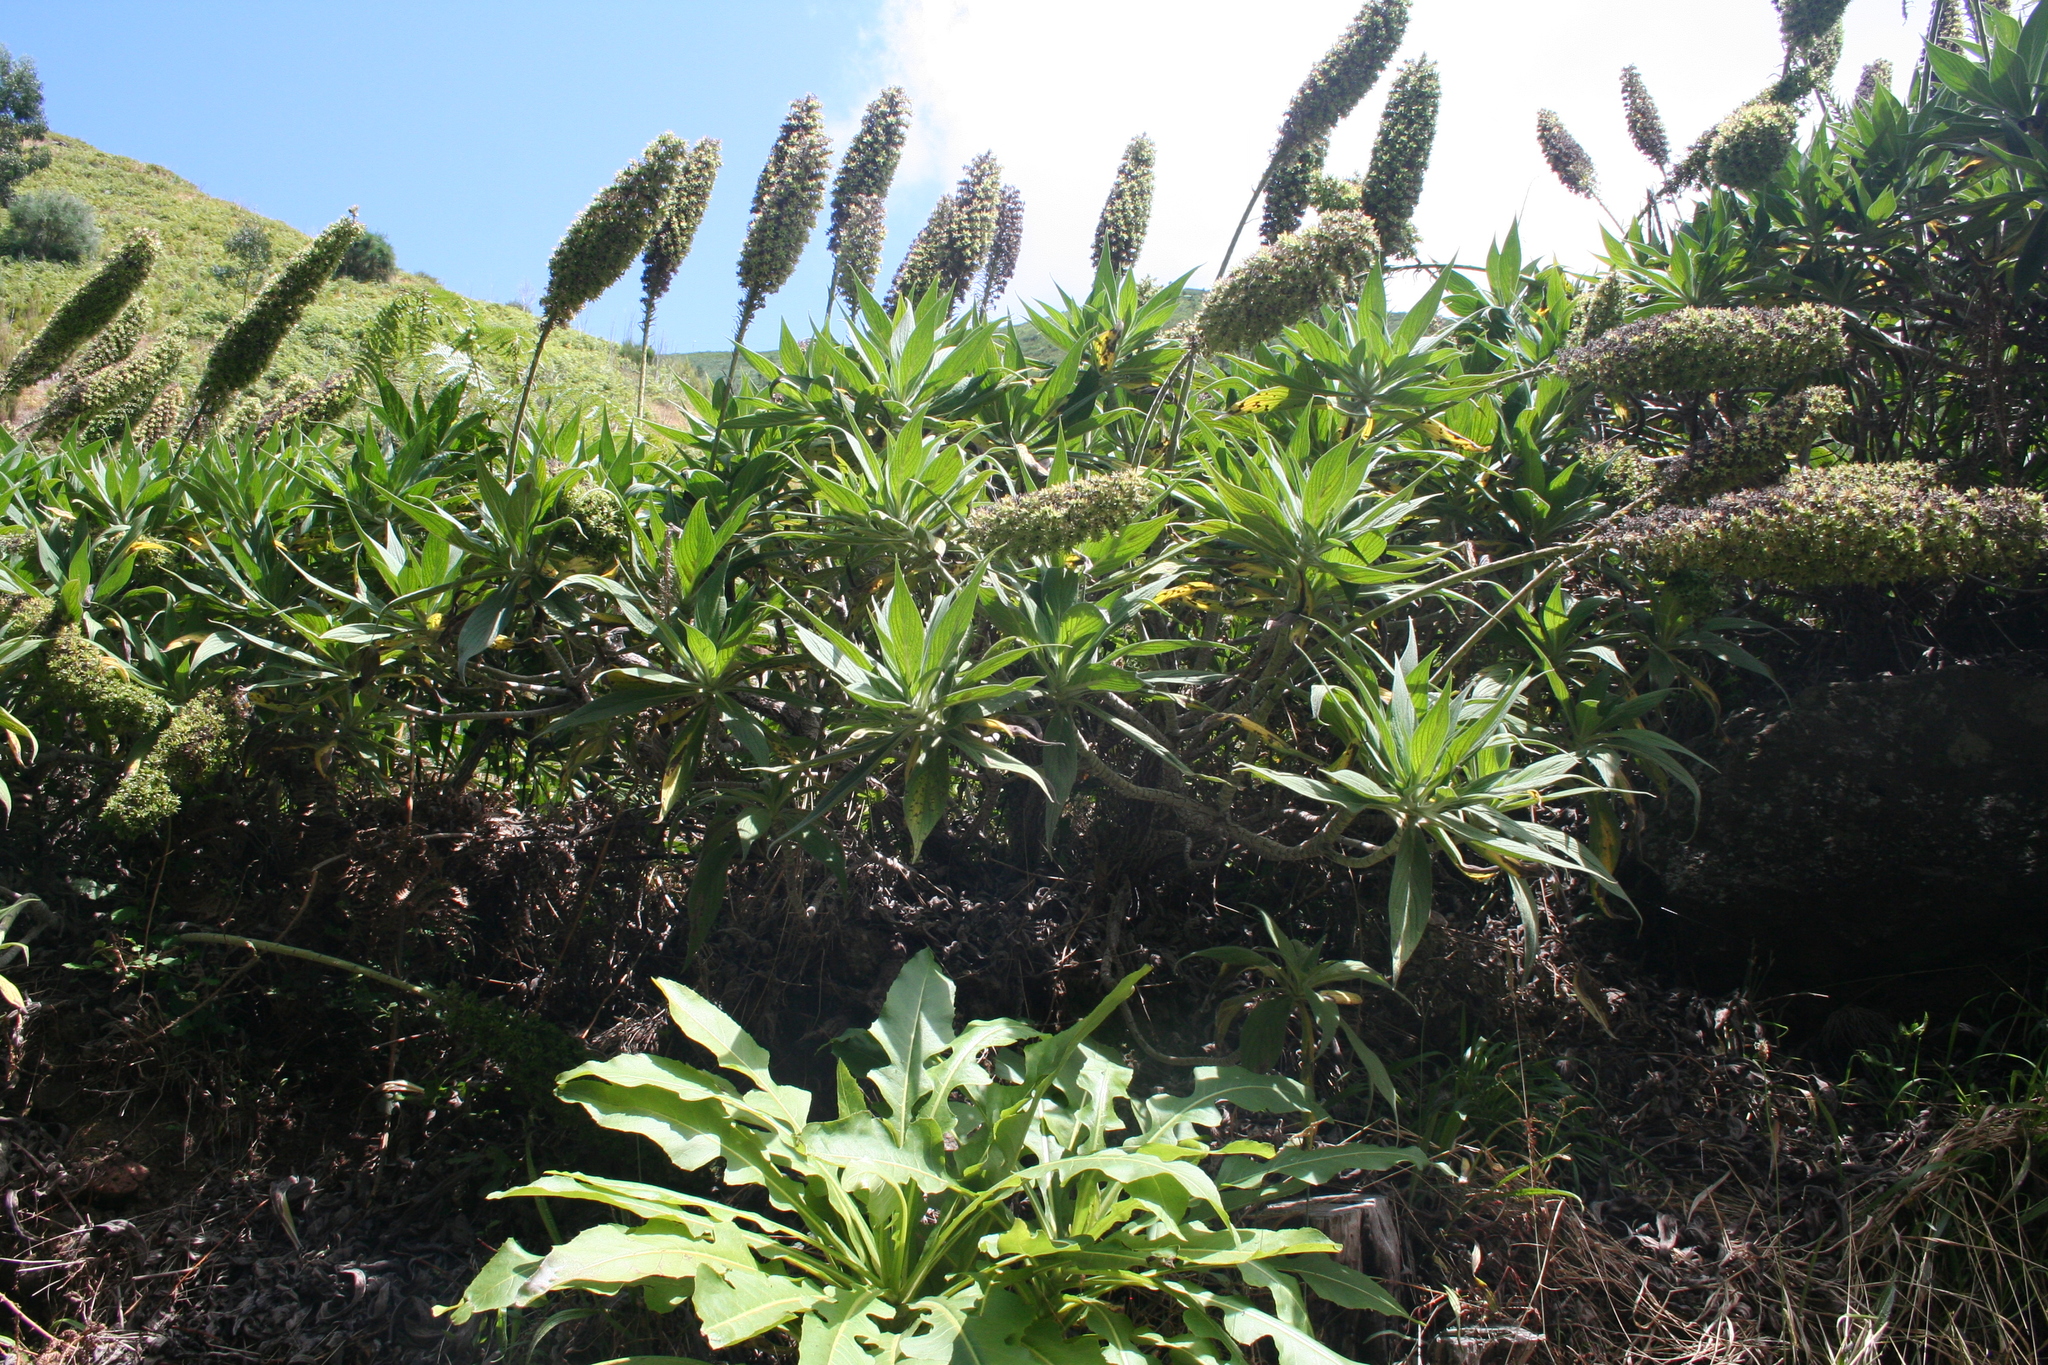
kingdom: Plantae
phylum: Tracheophyta
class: Magnoliopsida
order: Boraginales
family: Boraginaceae
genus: Echium
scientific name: Echium candicans
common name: Pride of madeira
